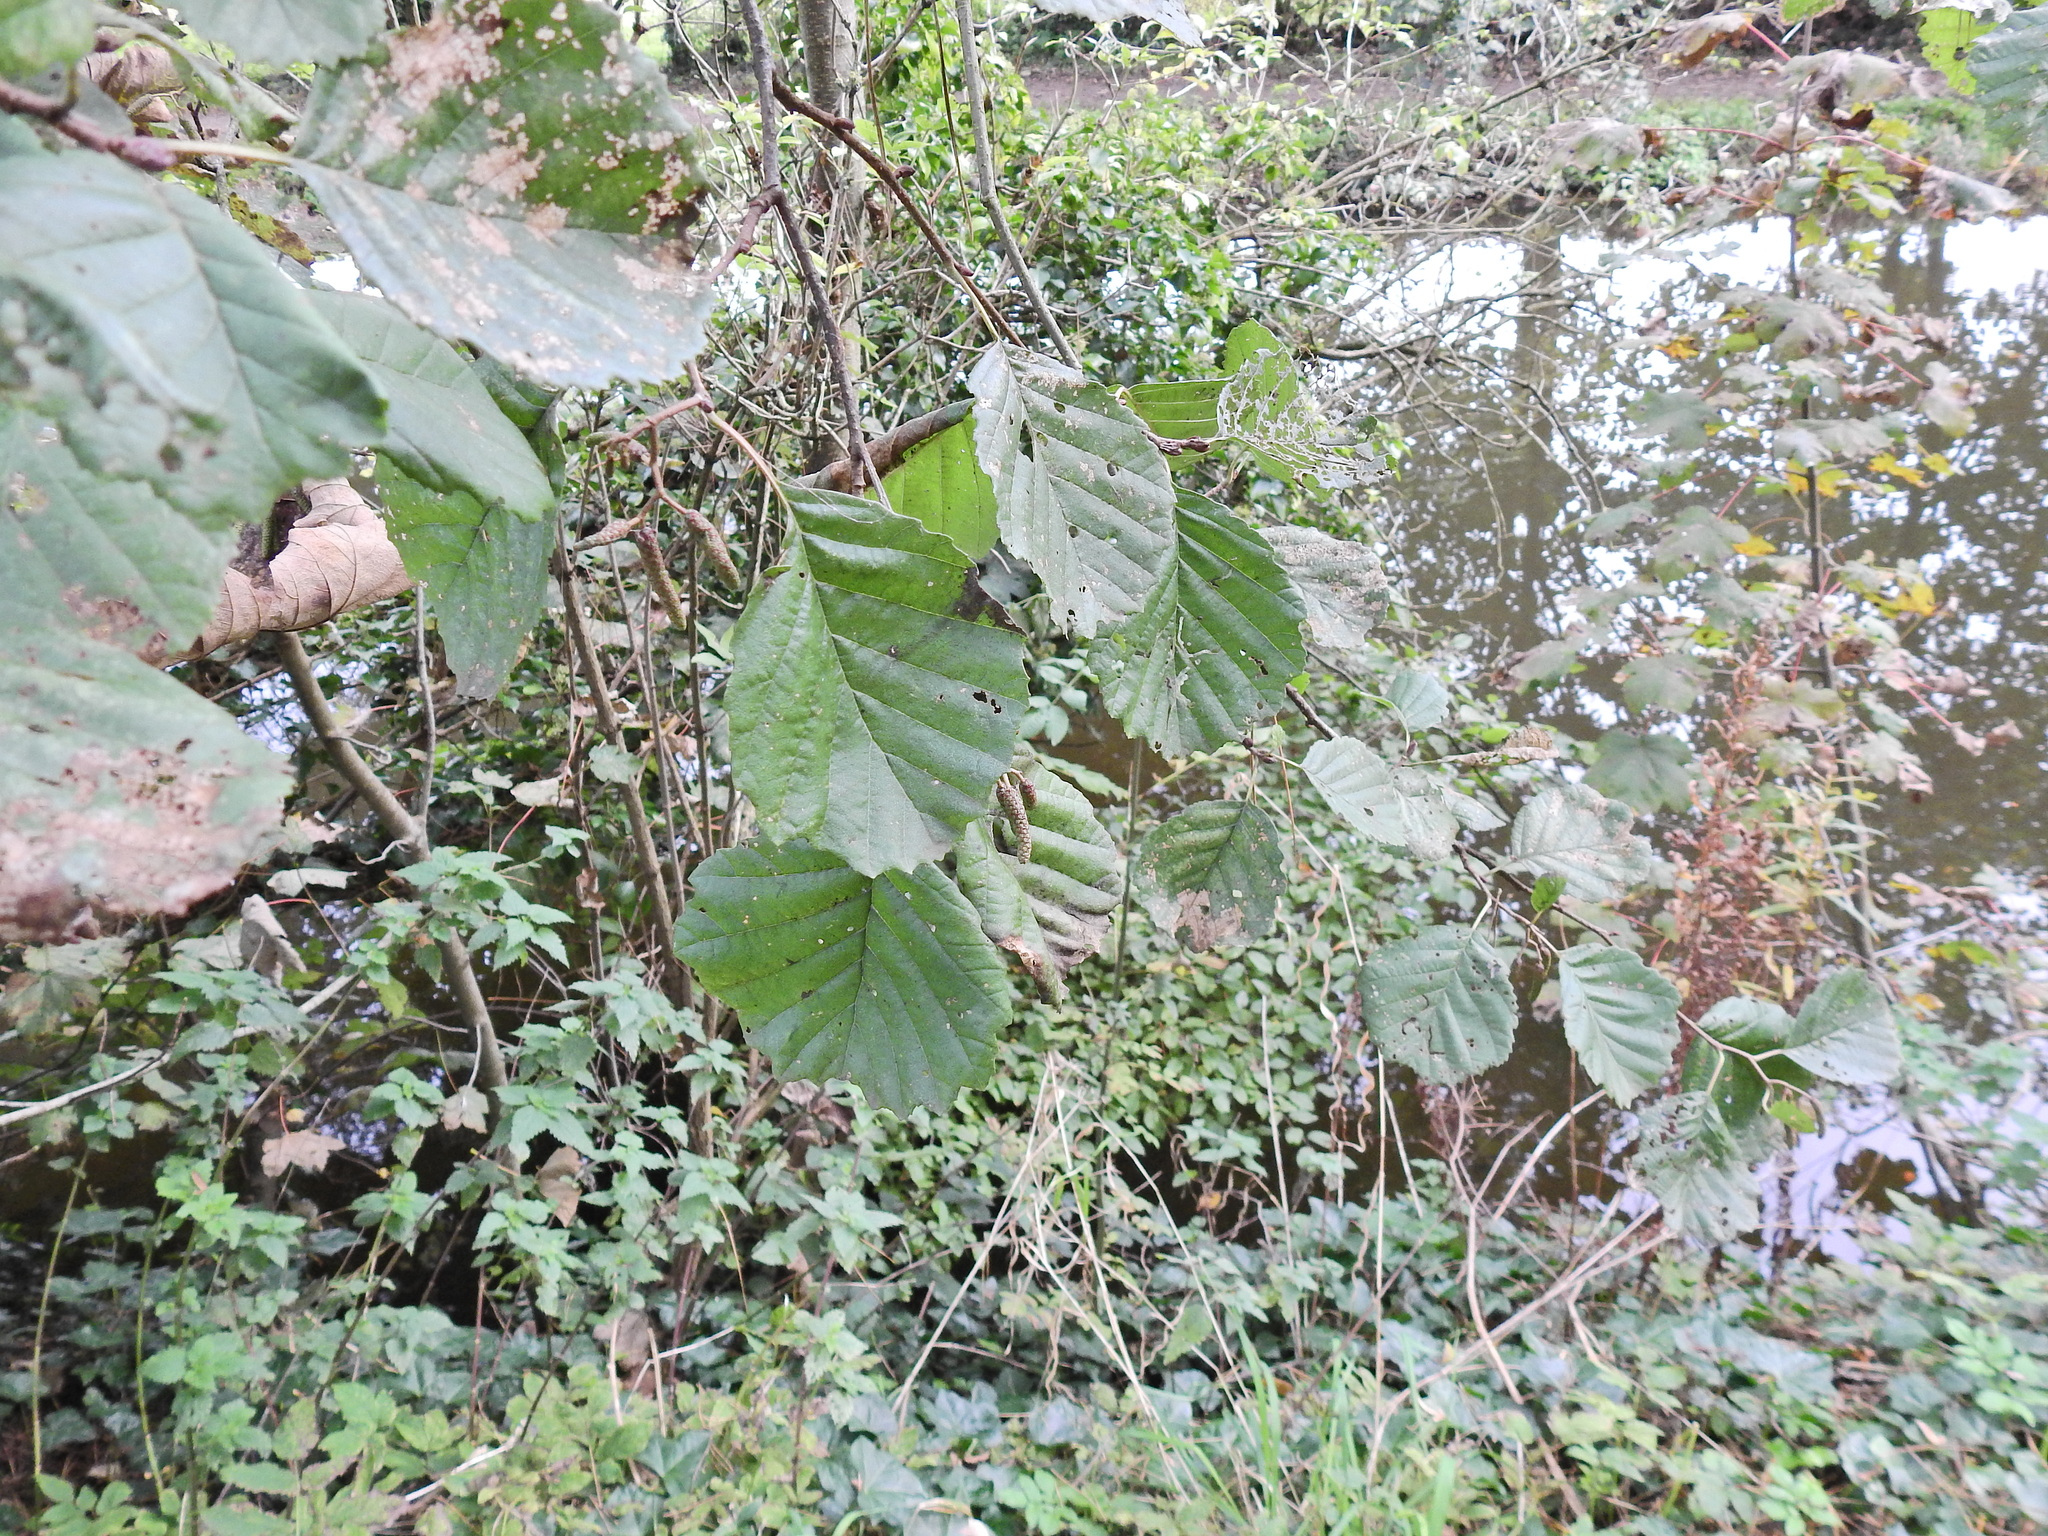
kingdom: Plantae
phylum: Tracheophyta
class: Magnoliopsida
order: Fagales
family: Betulaceae
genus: Alnus
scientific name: Alnus glutinosa
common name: Black alder
